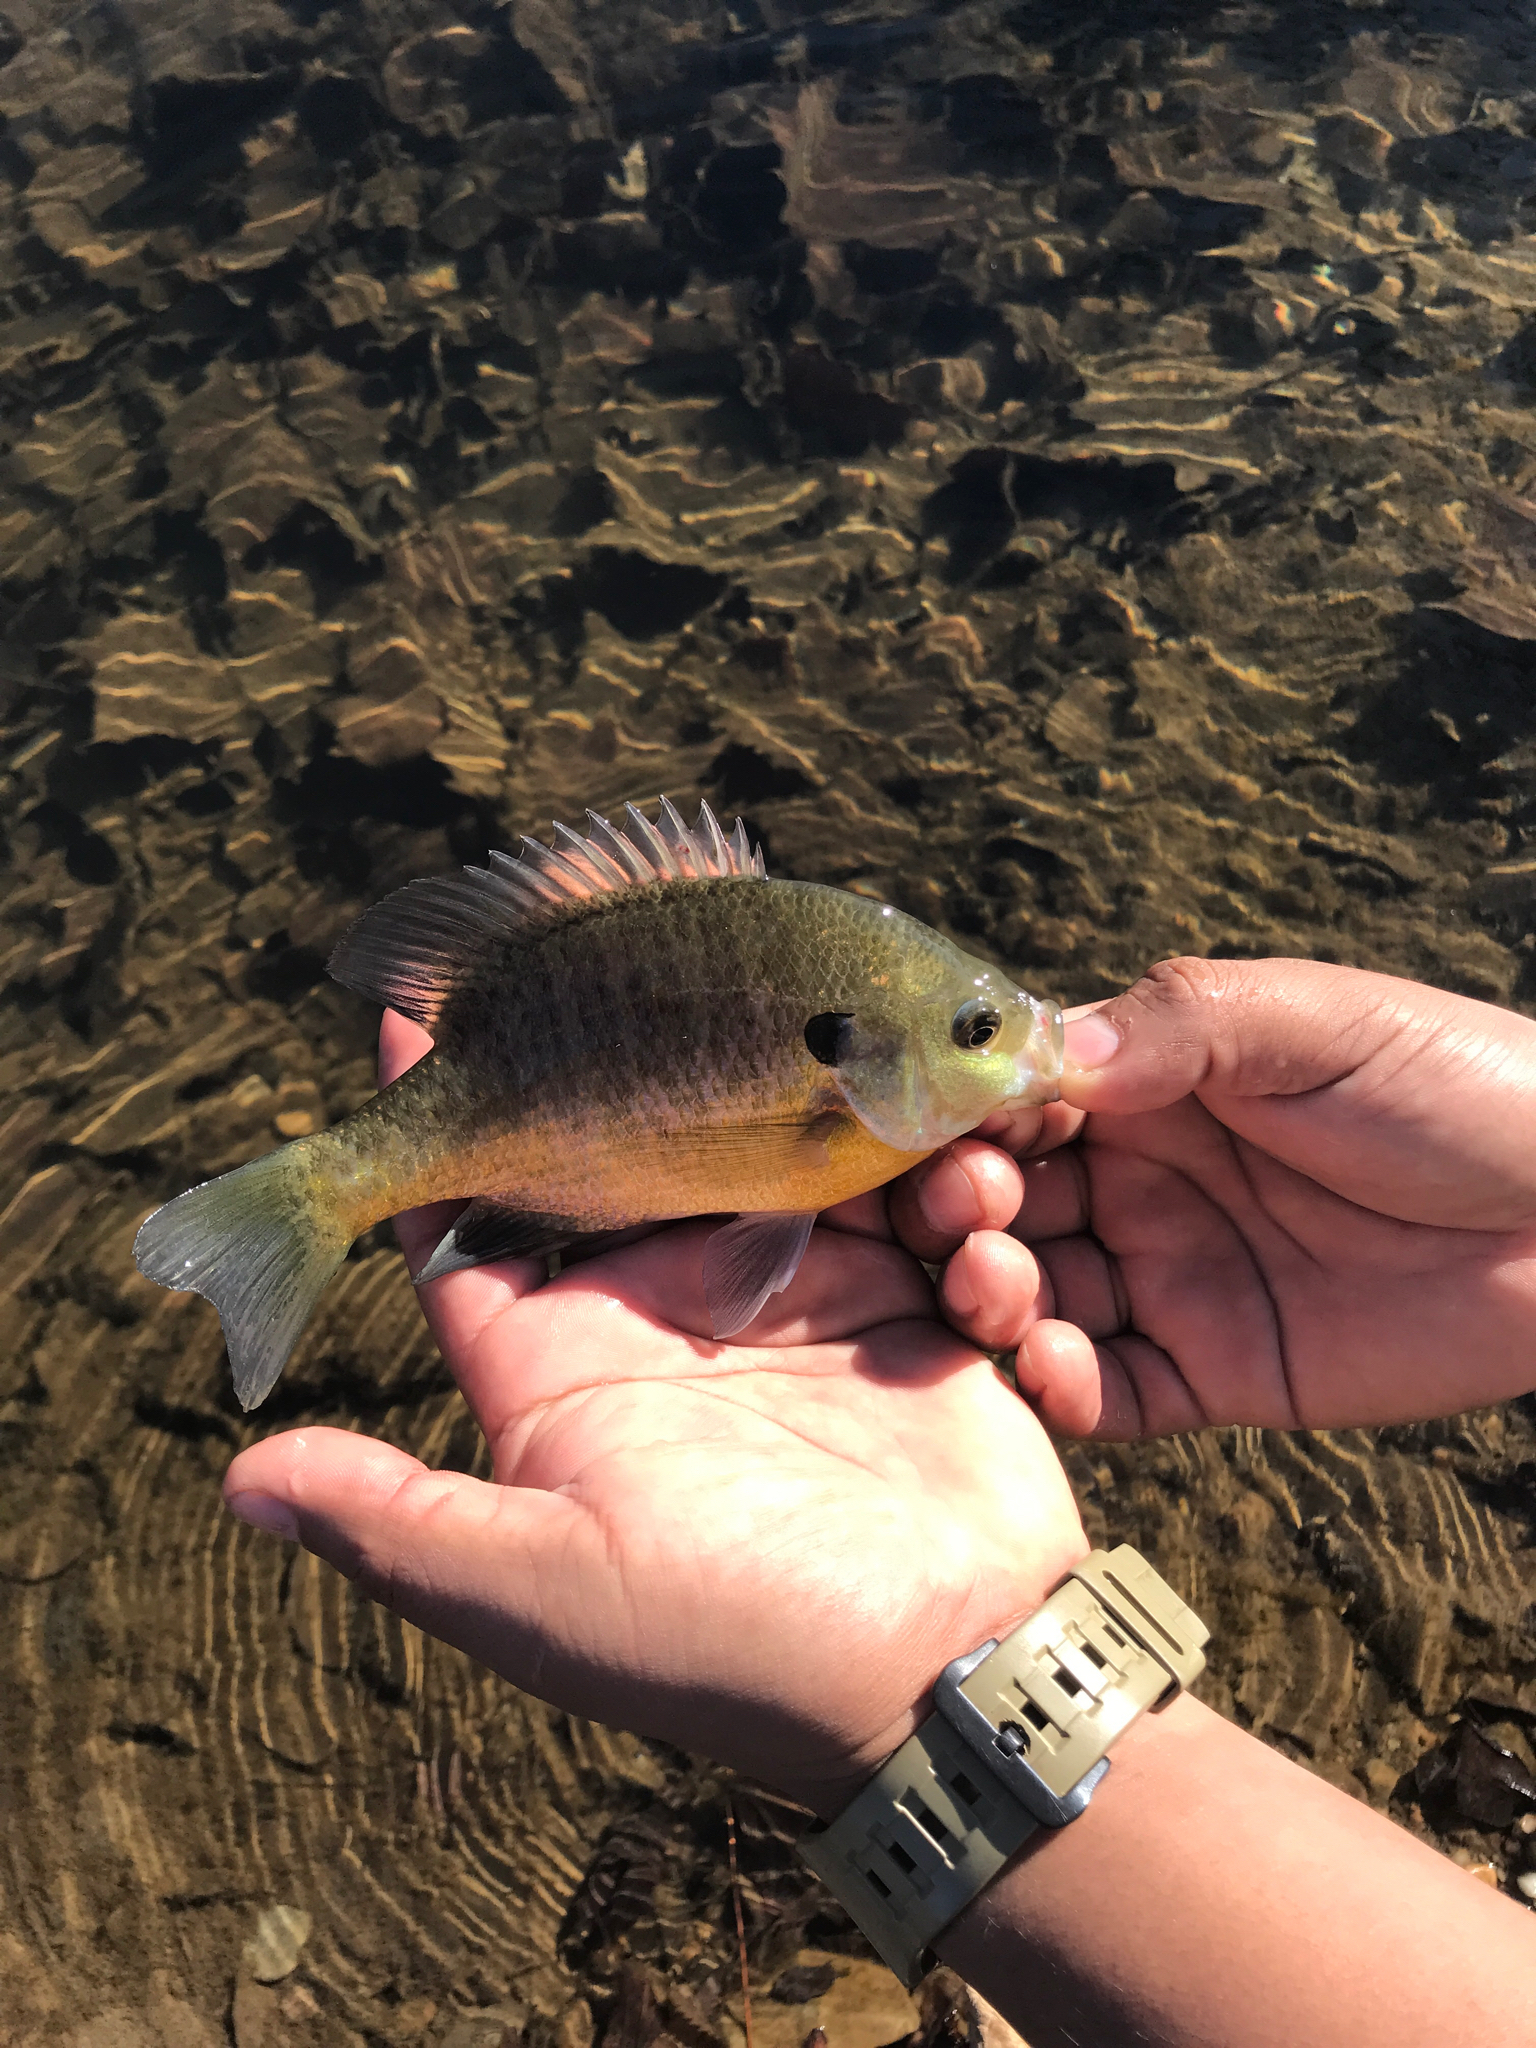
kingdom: Animalia
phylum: Chordata
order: Perciformes
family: Centrarchidae
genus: Lepomis
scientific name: Lepomis macrochirus
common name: Bluegill
